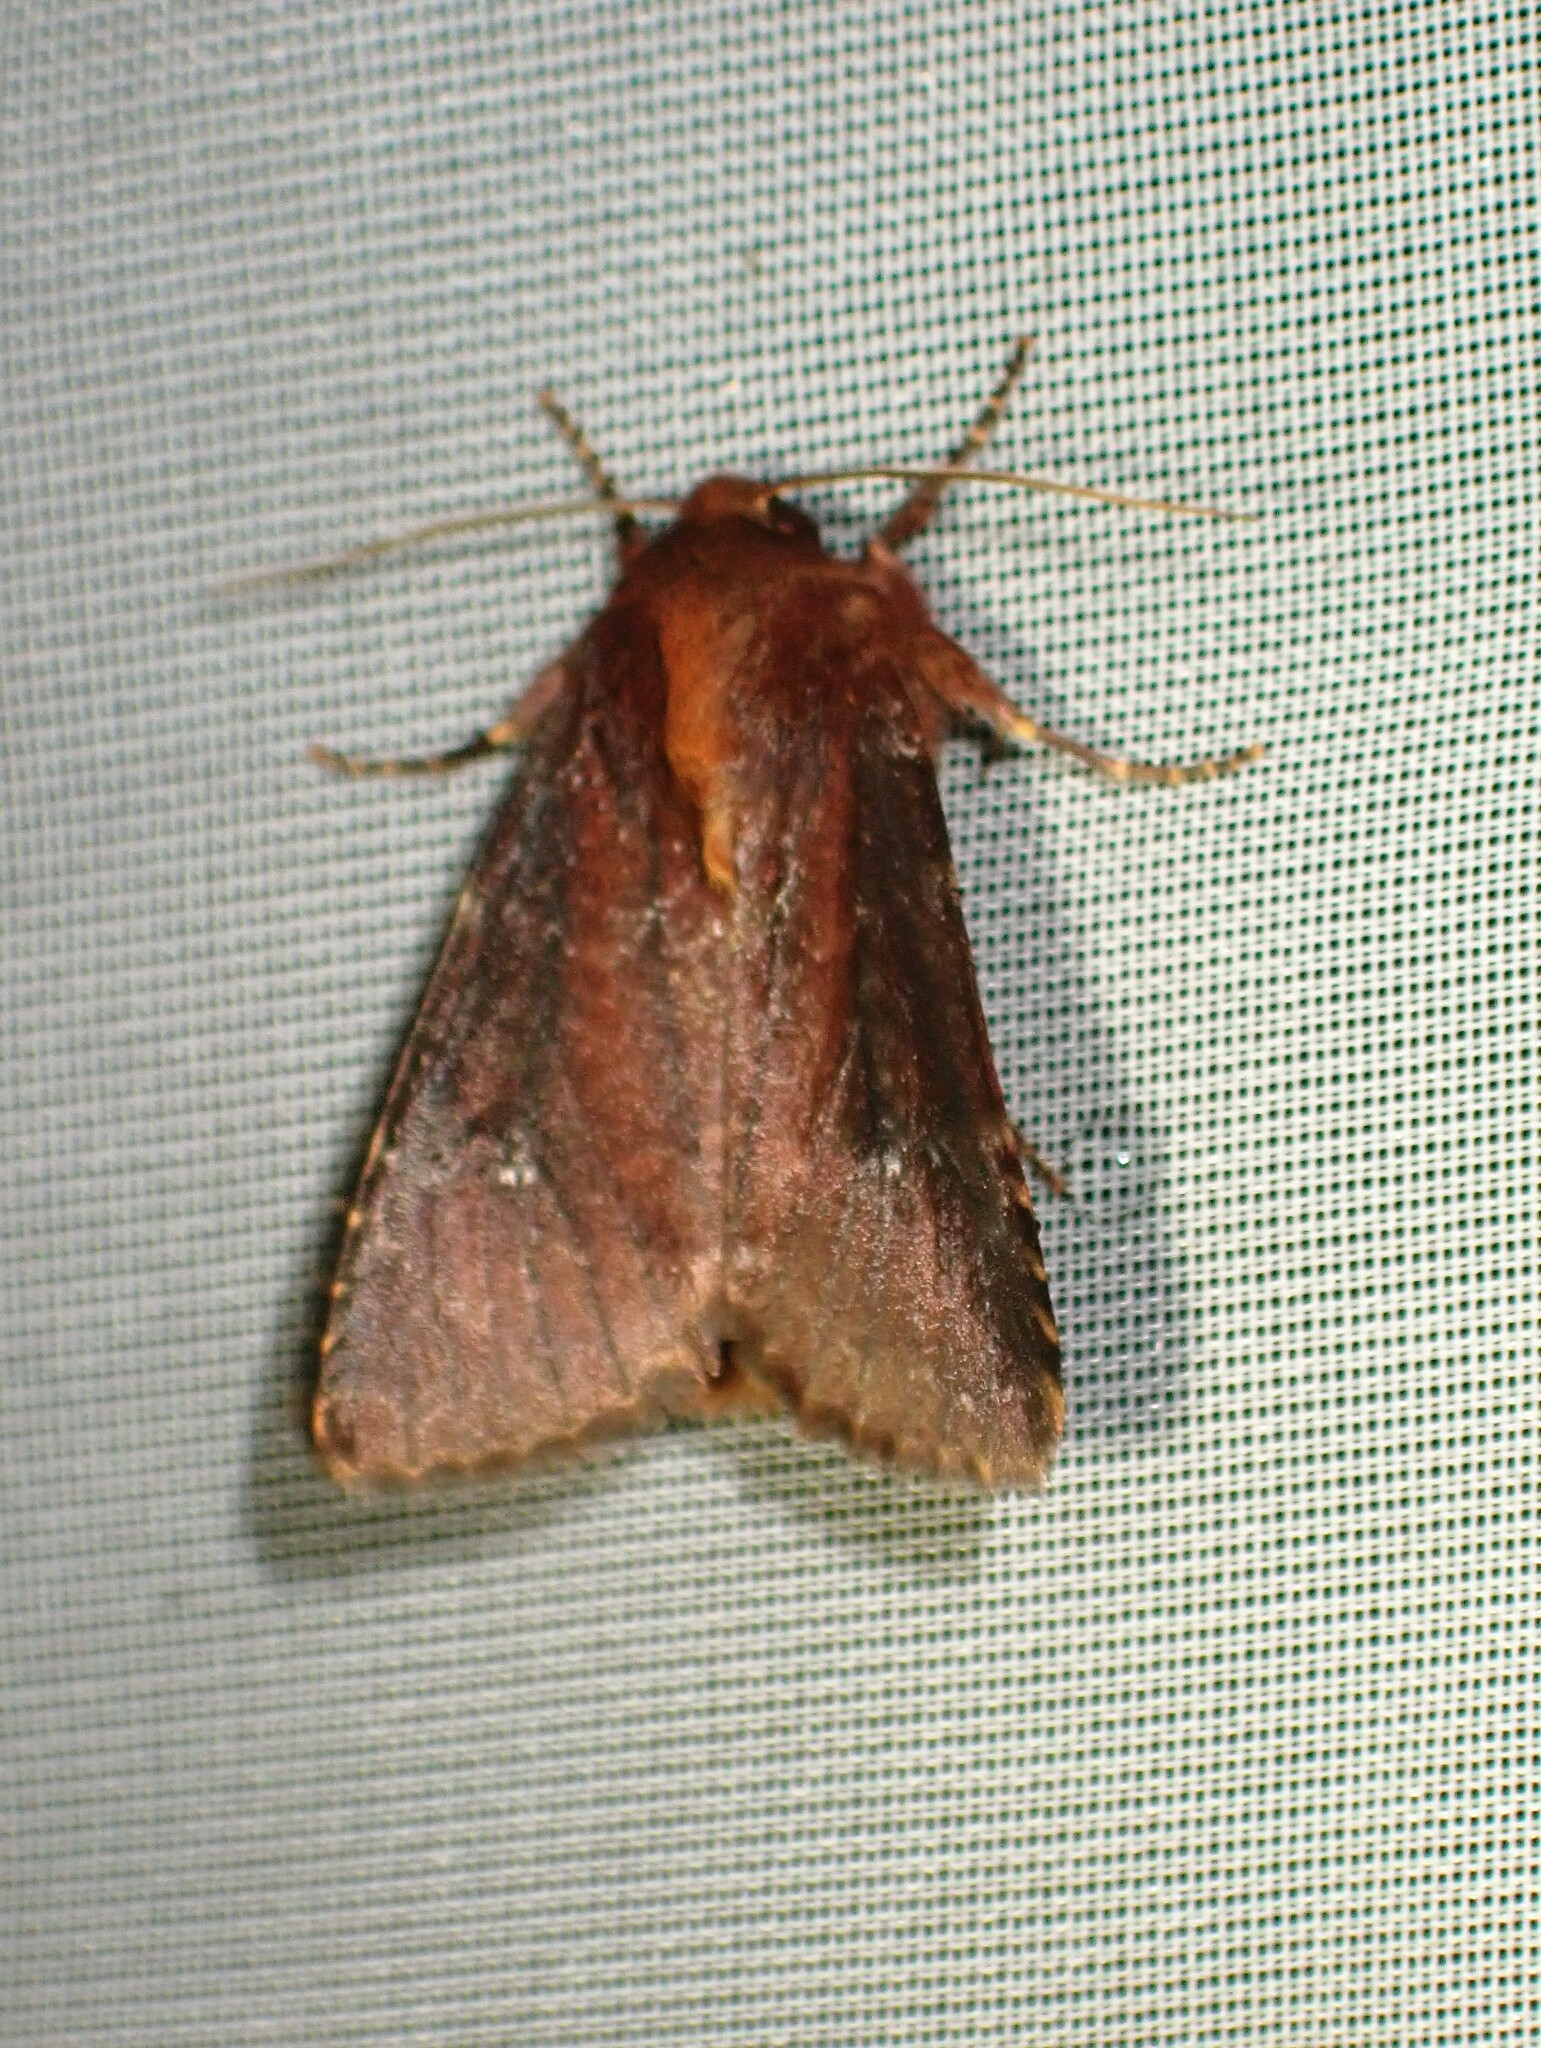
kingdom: Animalia
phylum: Arthropoda
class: Insecta
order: Lepidoptera
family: Noctuidae
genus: Sideridis
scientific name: Sideridis maryx
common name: Maroonwing moth
